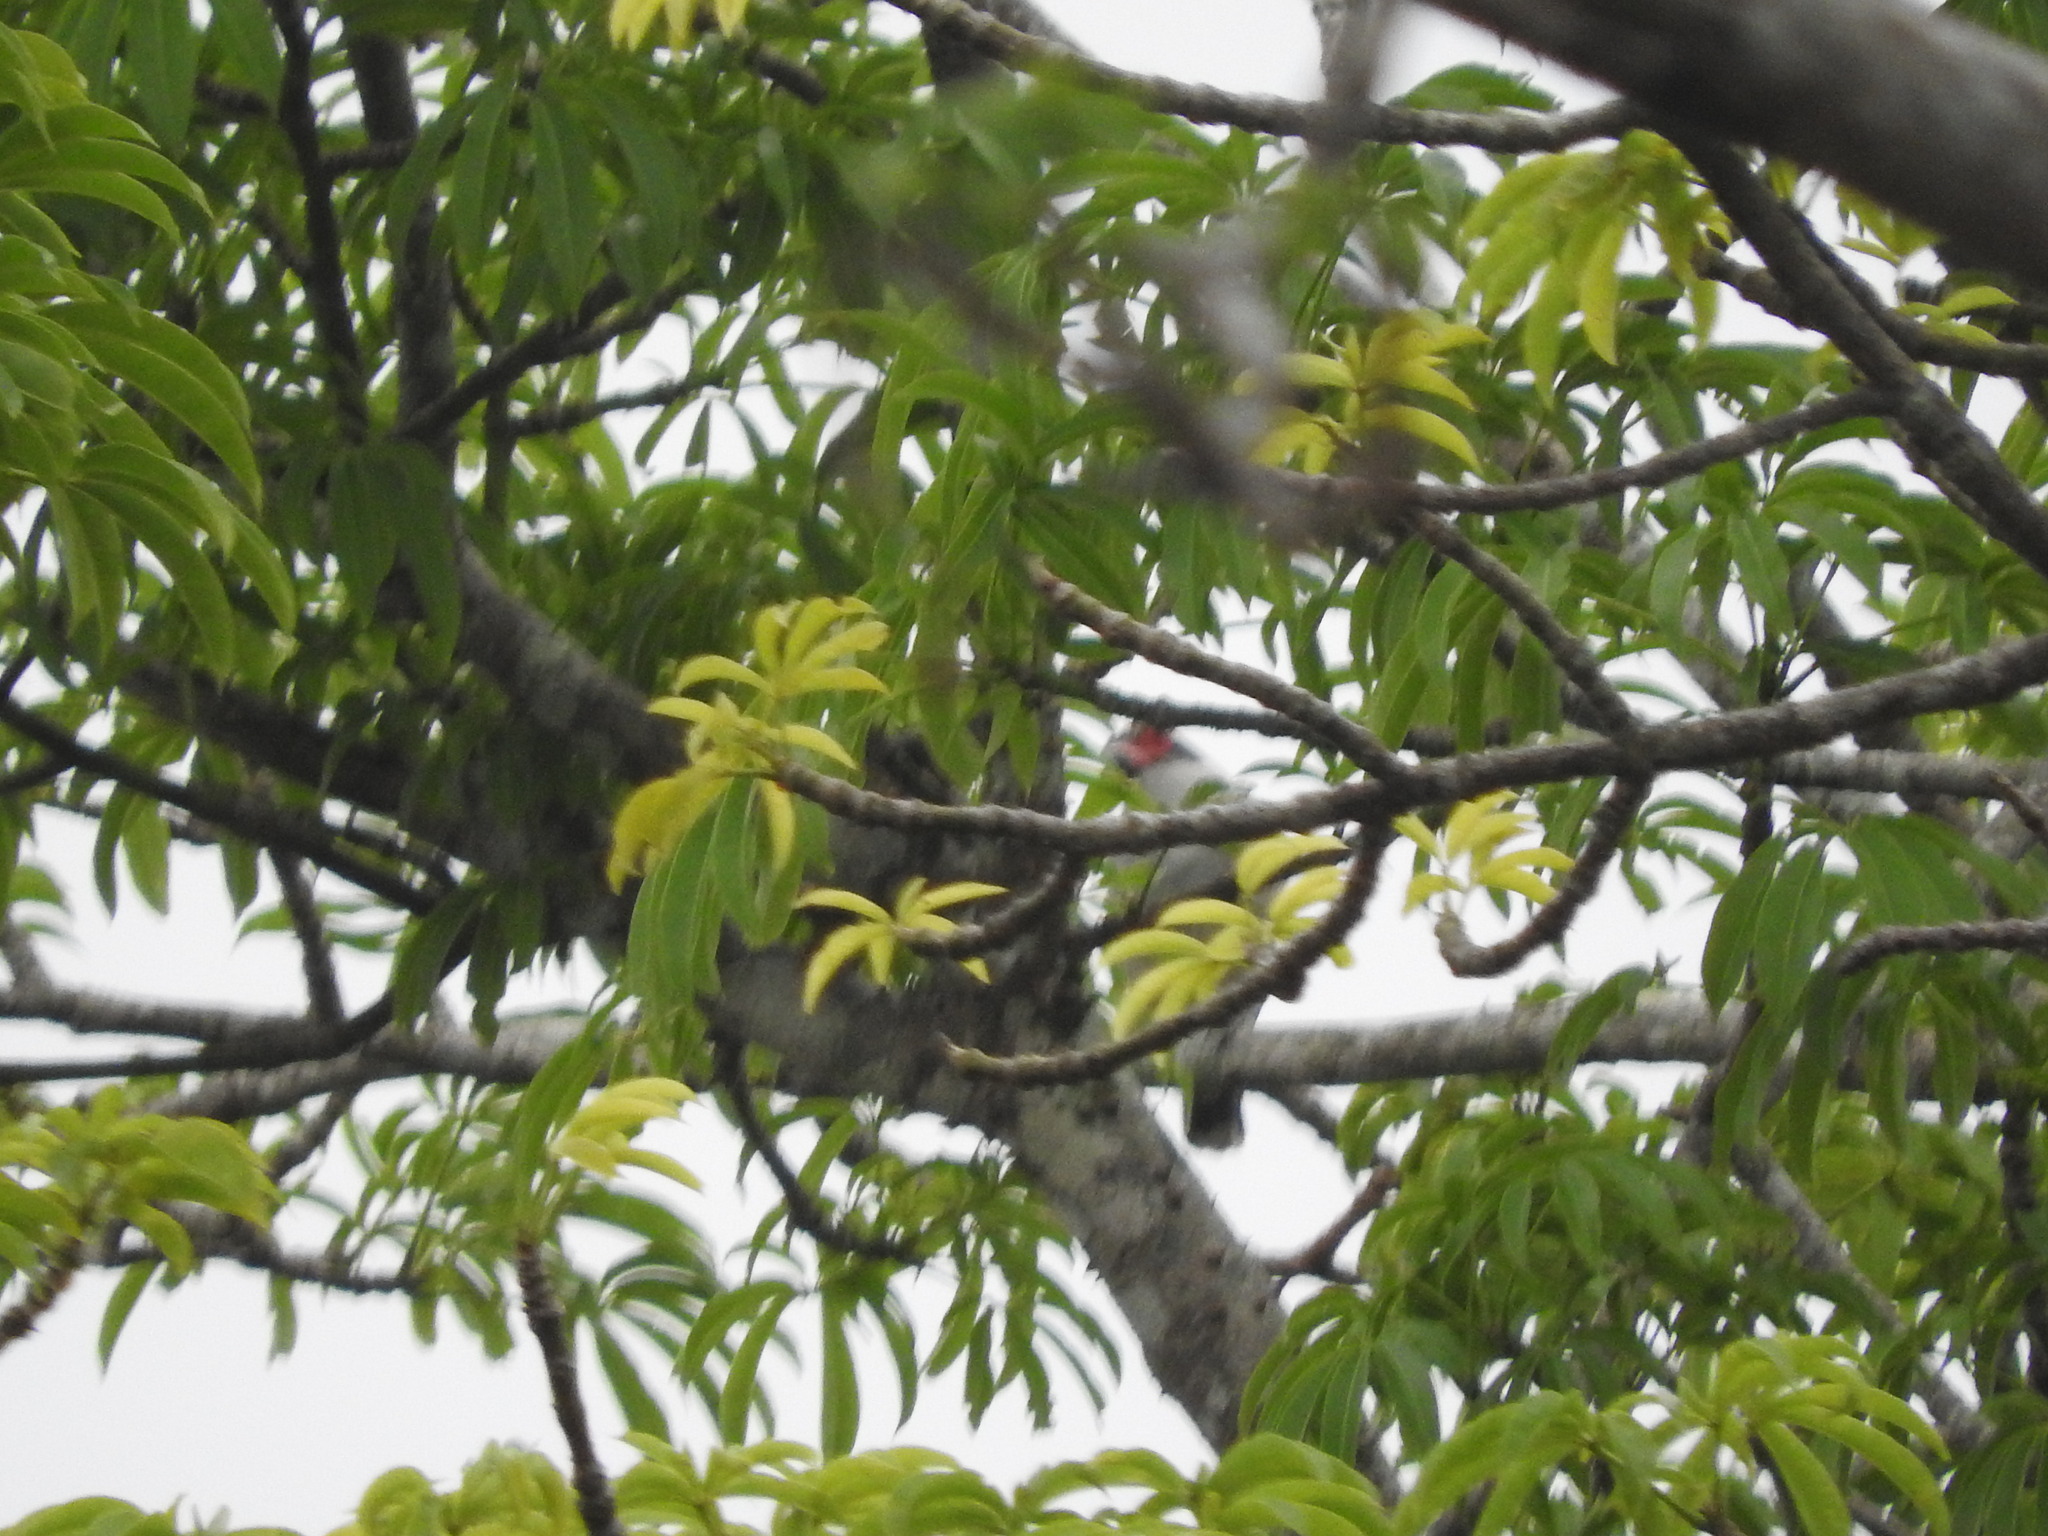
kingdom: Animalia
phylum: Chordata
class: Aves
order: Passeriformes
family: Cotingidae
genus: Tityra
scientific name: Tityra semifasciata
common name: Masked tityra
